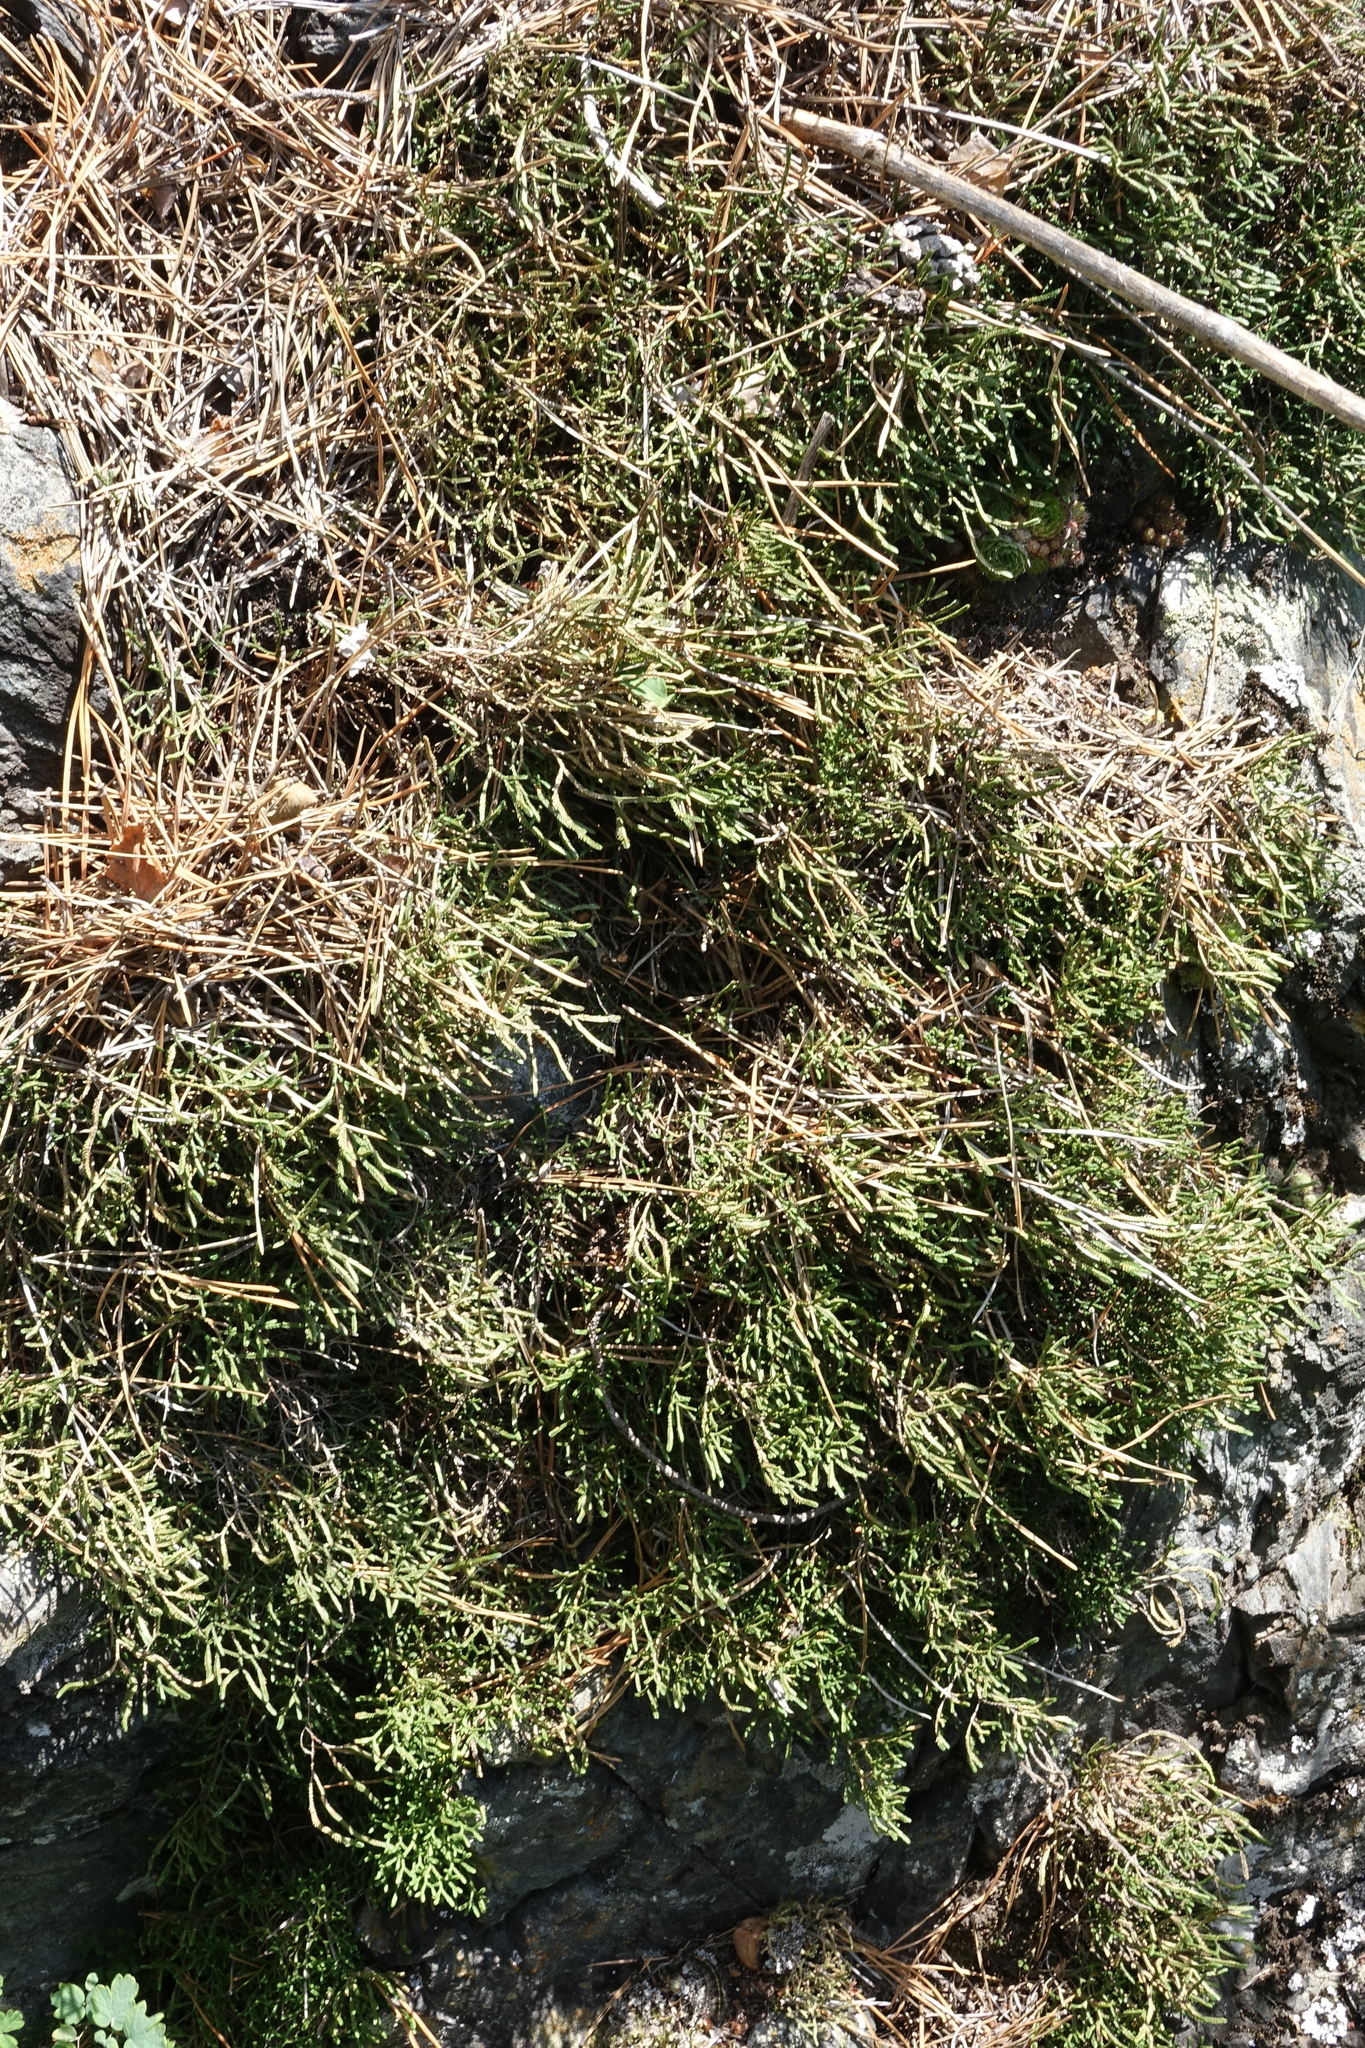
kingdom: Plantae
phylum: Tracheophyta
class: Lycopodiopsida
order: Selaginellales
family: Selaginellaceae
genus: Selaginella
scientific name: Selaginella sanguinolenta
